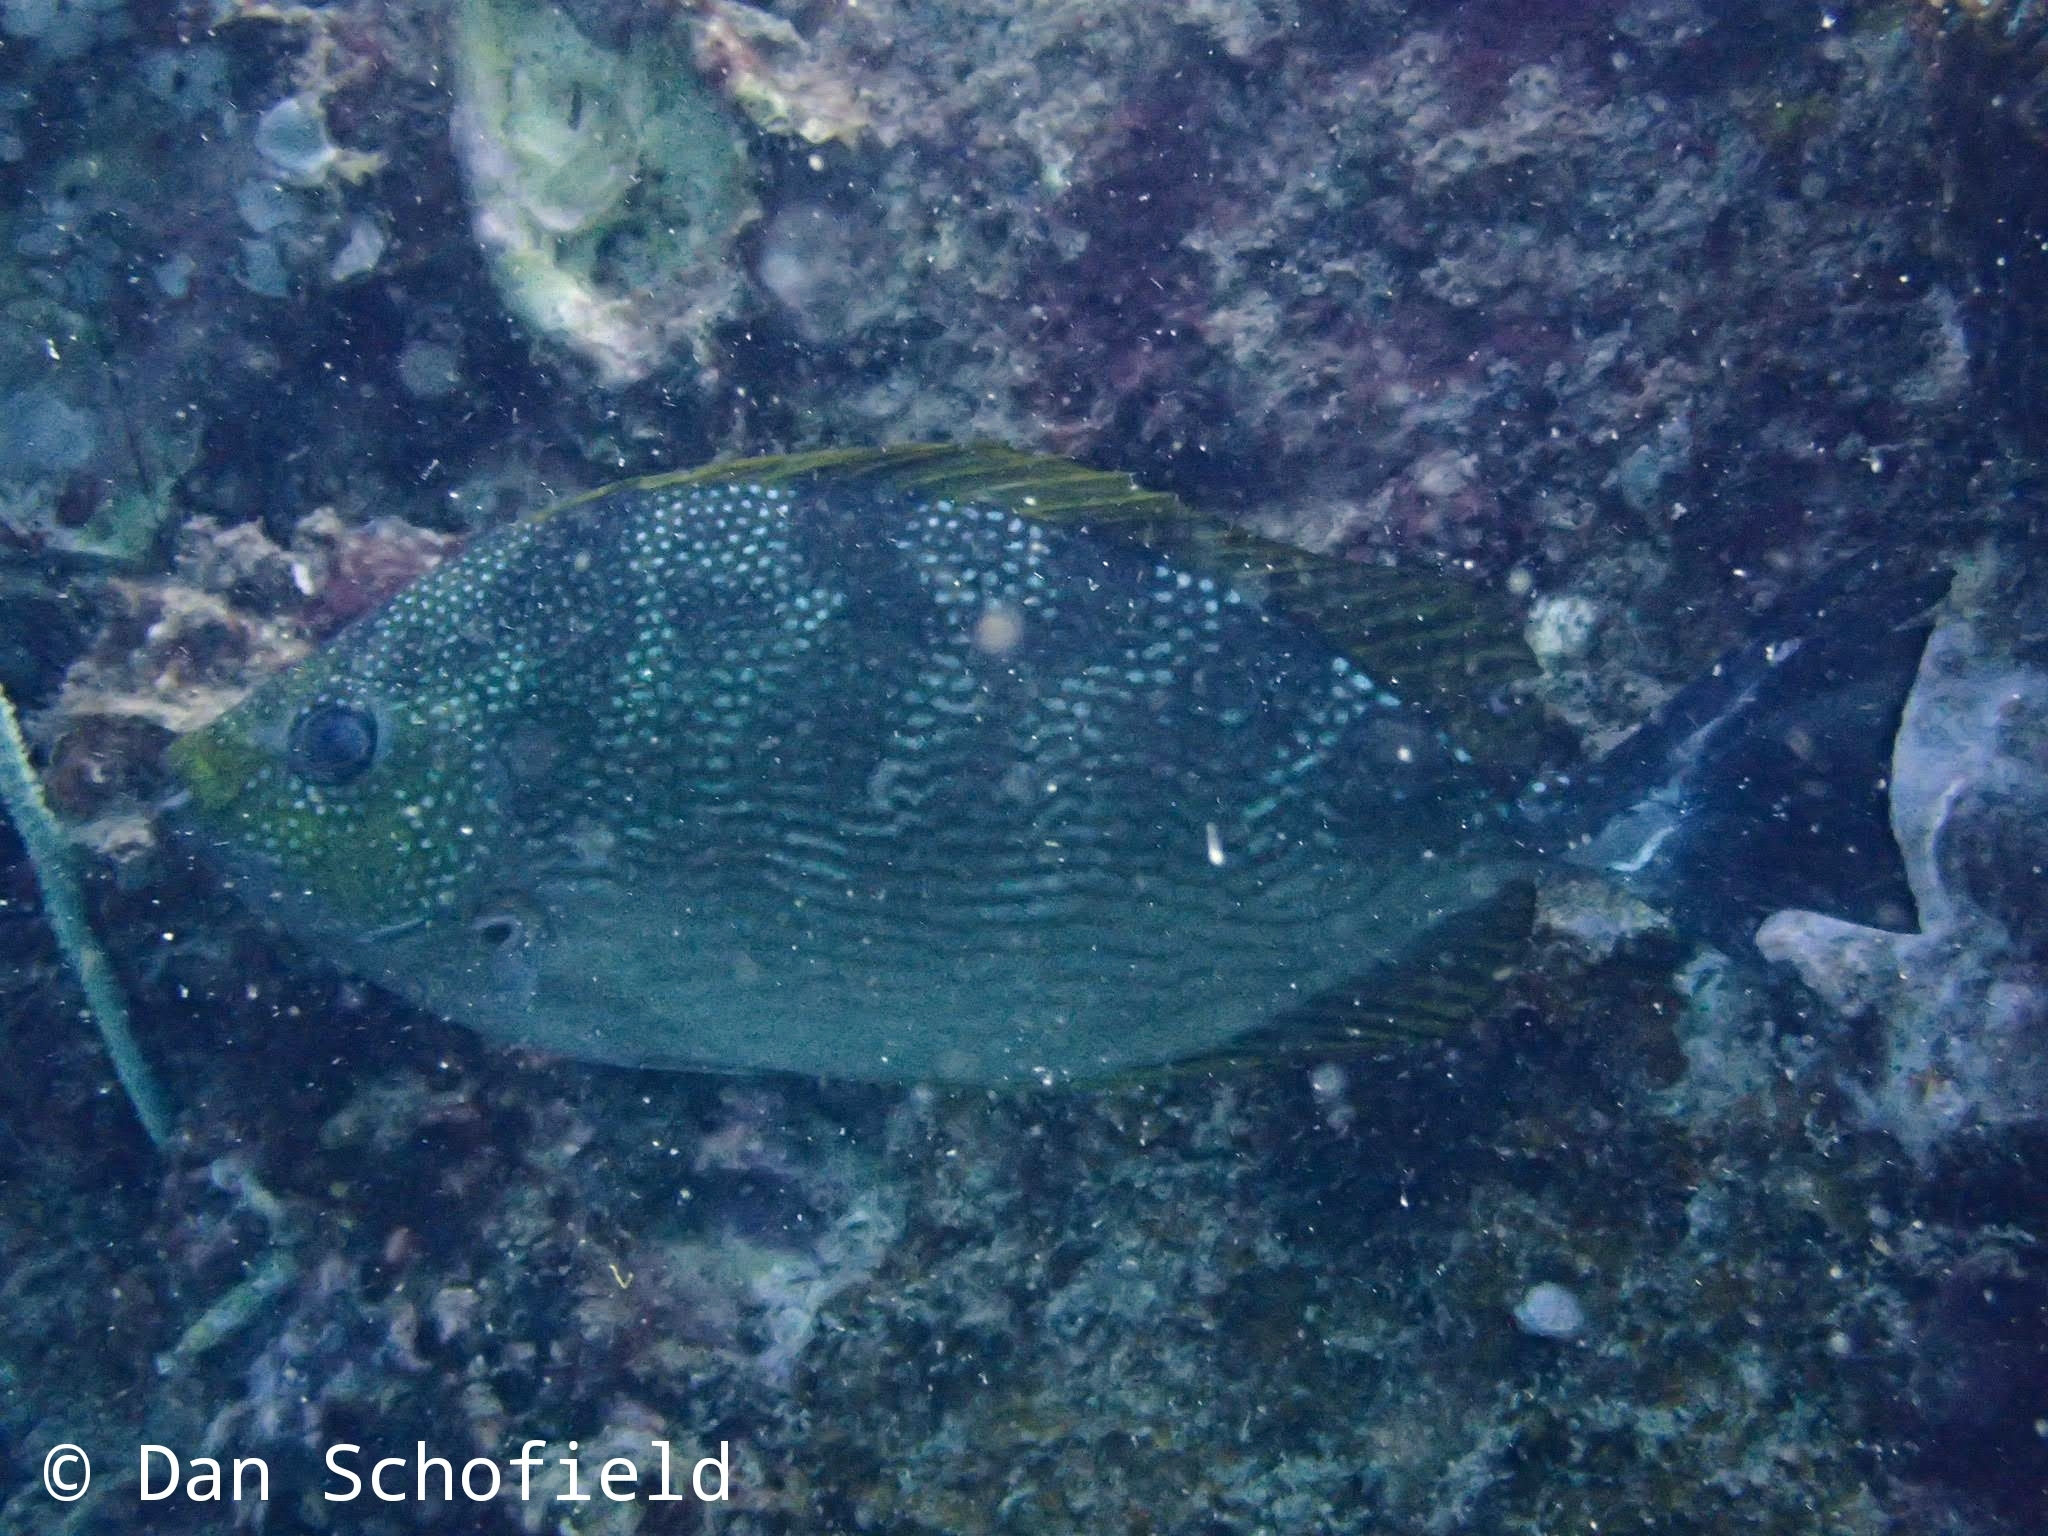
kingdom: Animalia
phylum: Chordata
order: Perciformes
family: Siganidae
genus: Siganus
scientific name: Siganus javus
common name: Java rabbitfish
